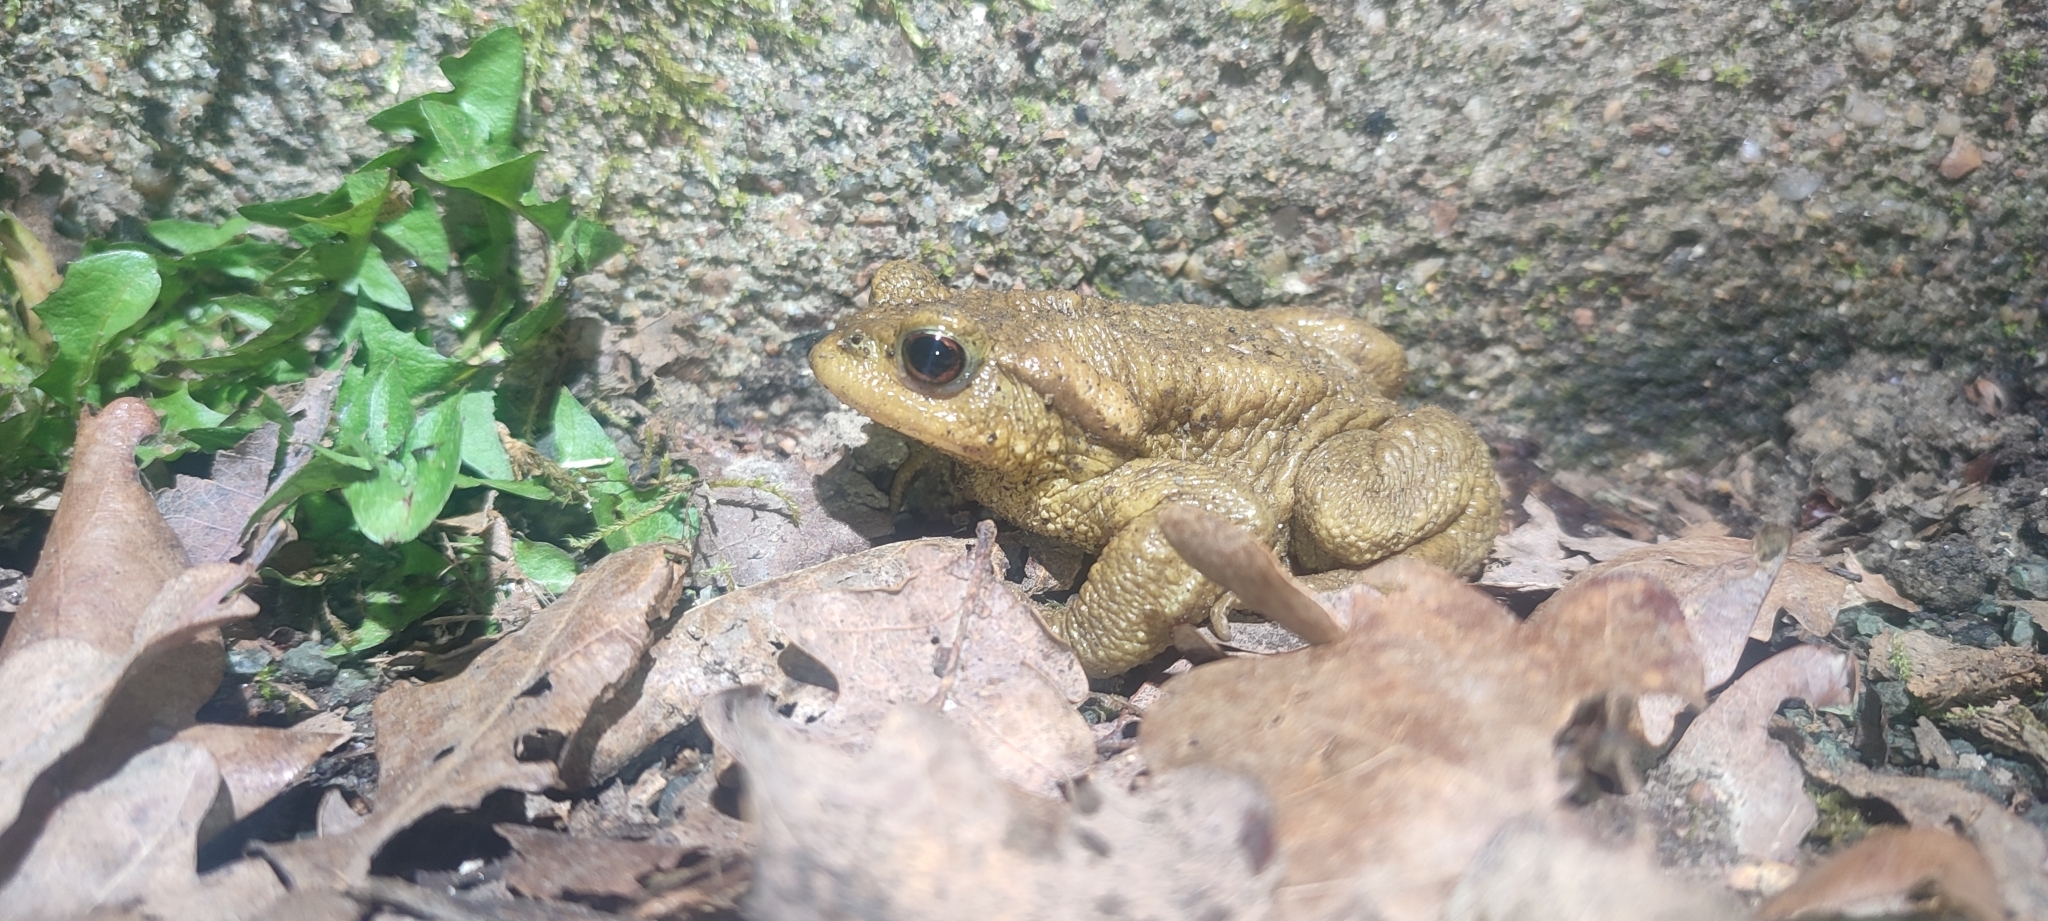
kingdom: Animalia
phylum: Chordata
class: Amphibia
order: Anura
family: Bufonidae
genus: Bufo
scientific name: Bufo spinosus
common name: Western common toad
